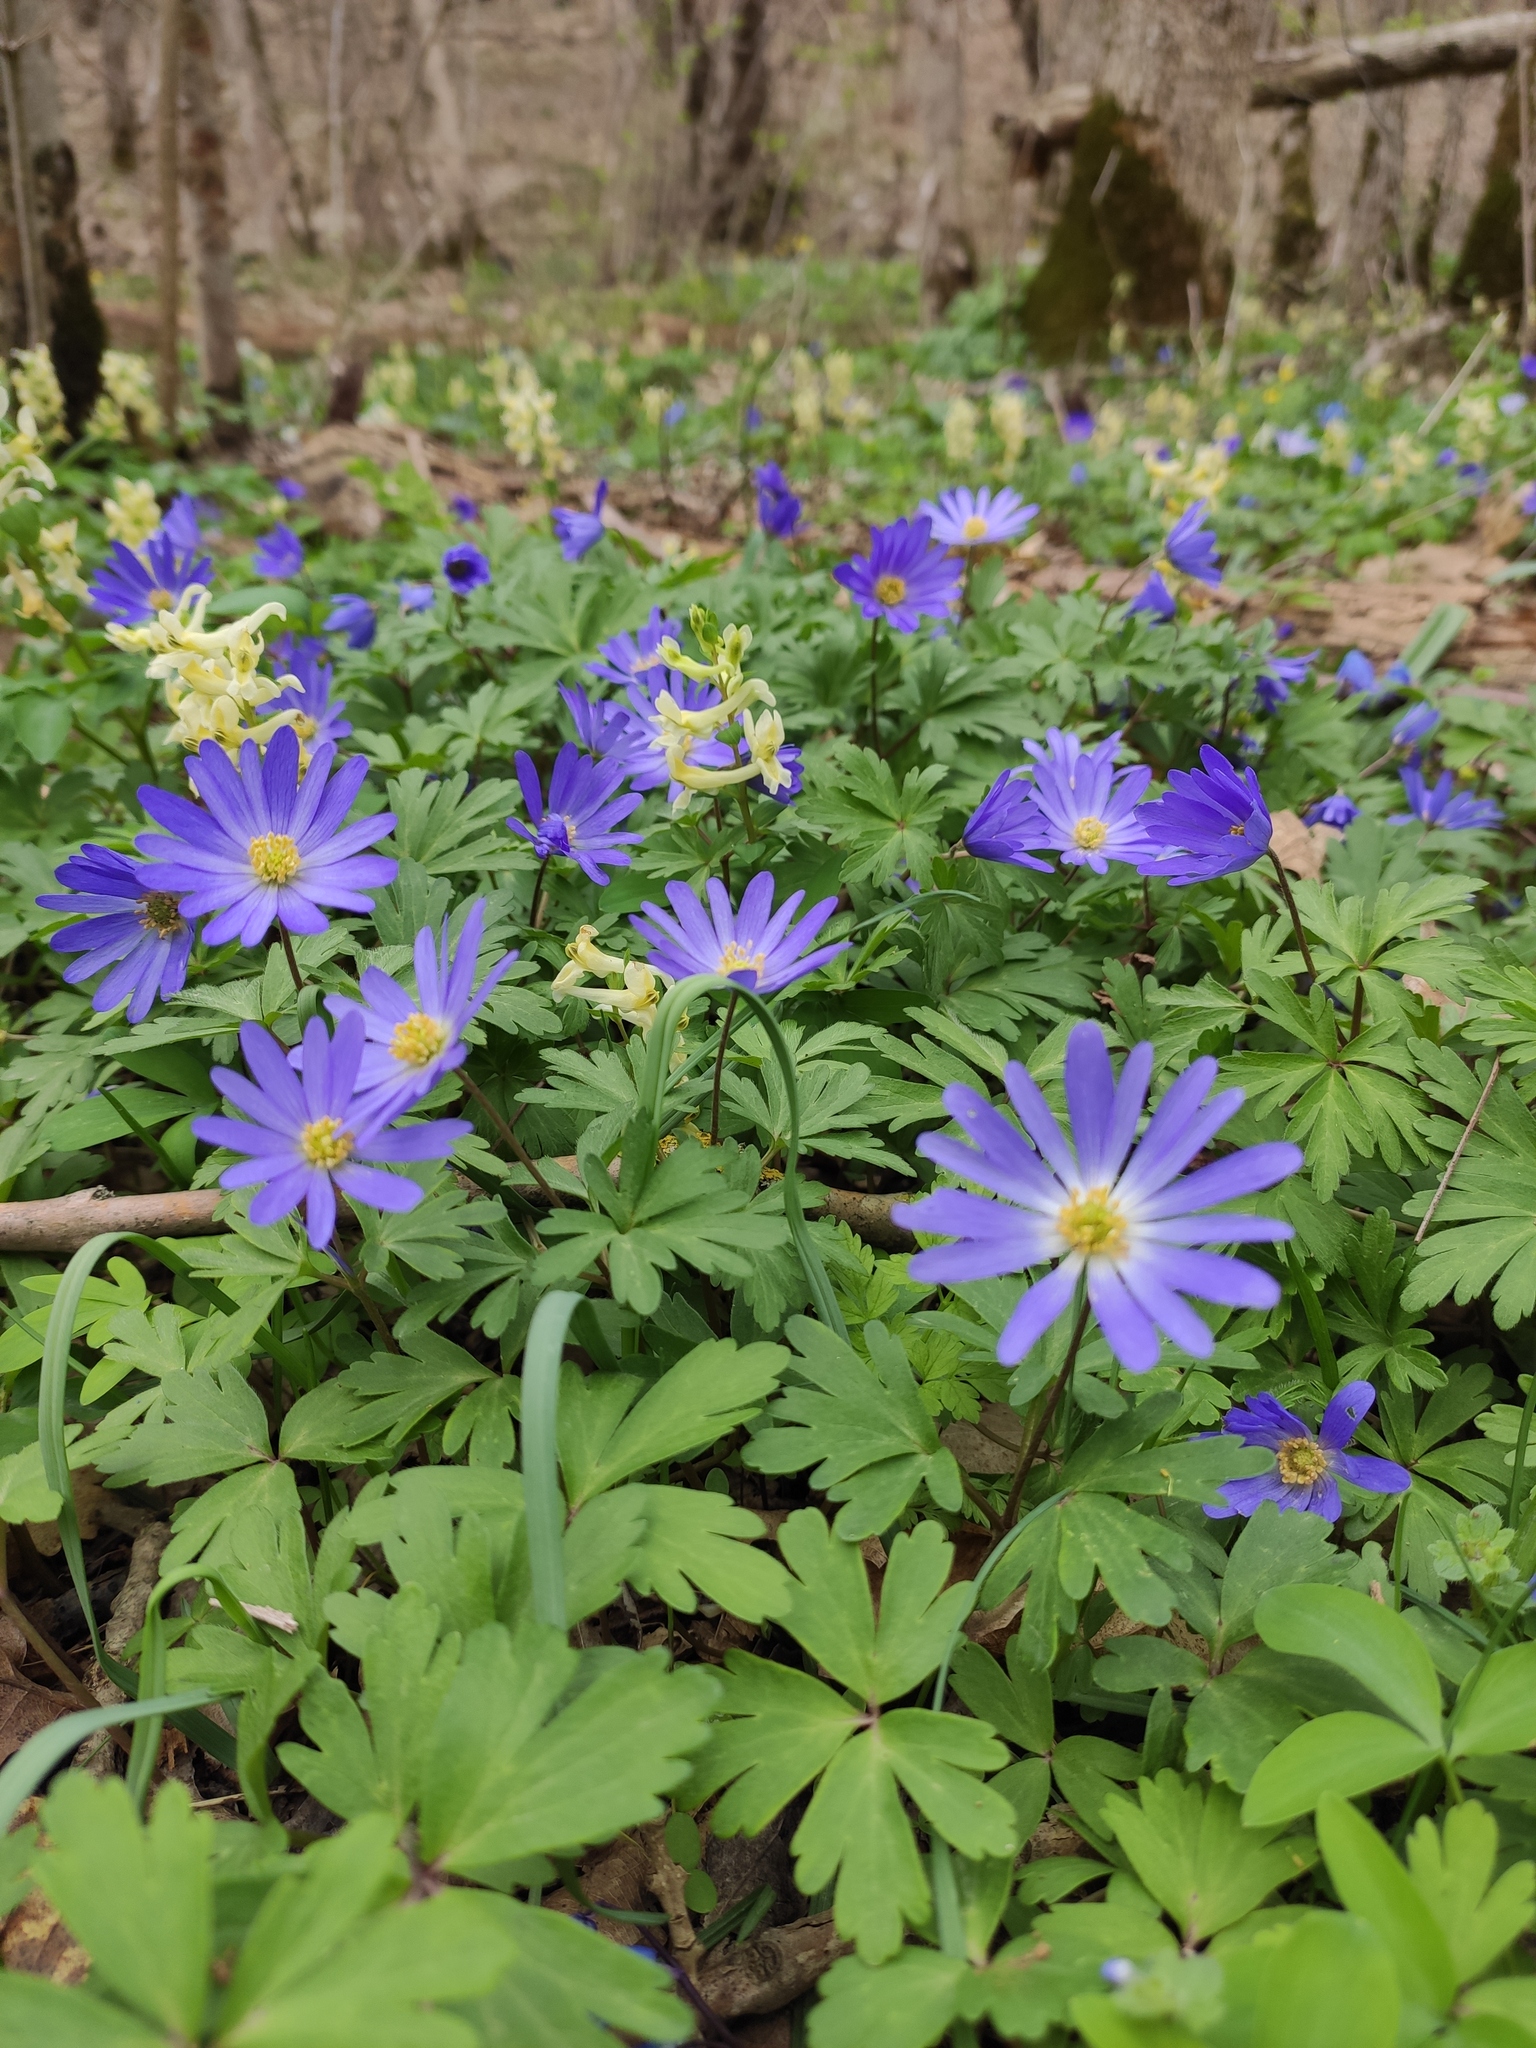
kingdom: Plantae
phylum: Tracheophyta
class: Magnoliopsida
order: Ranunculales
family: Ranunculaceae
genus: Anemone
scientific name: Anemone blanda
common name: Balkan anemone
